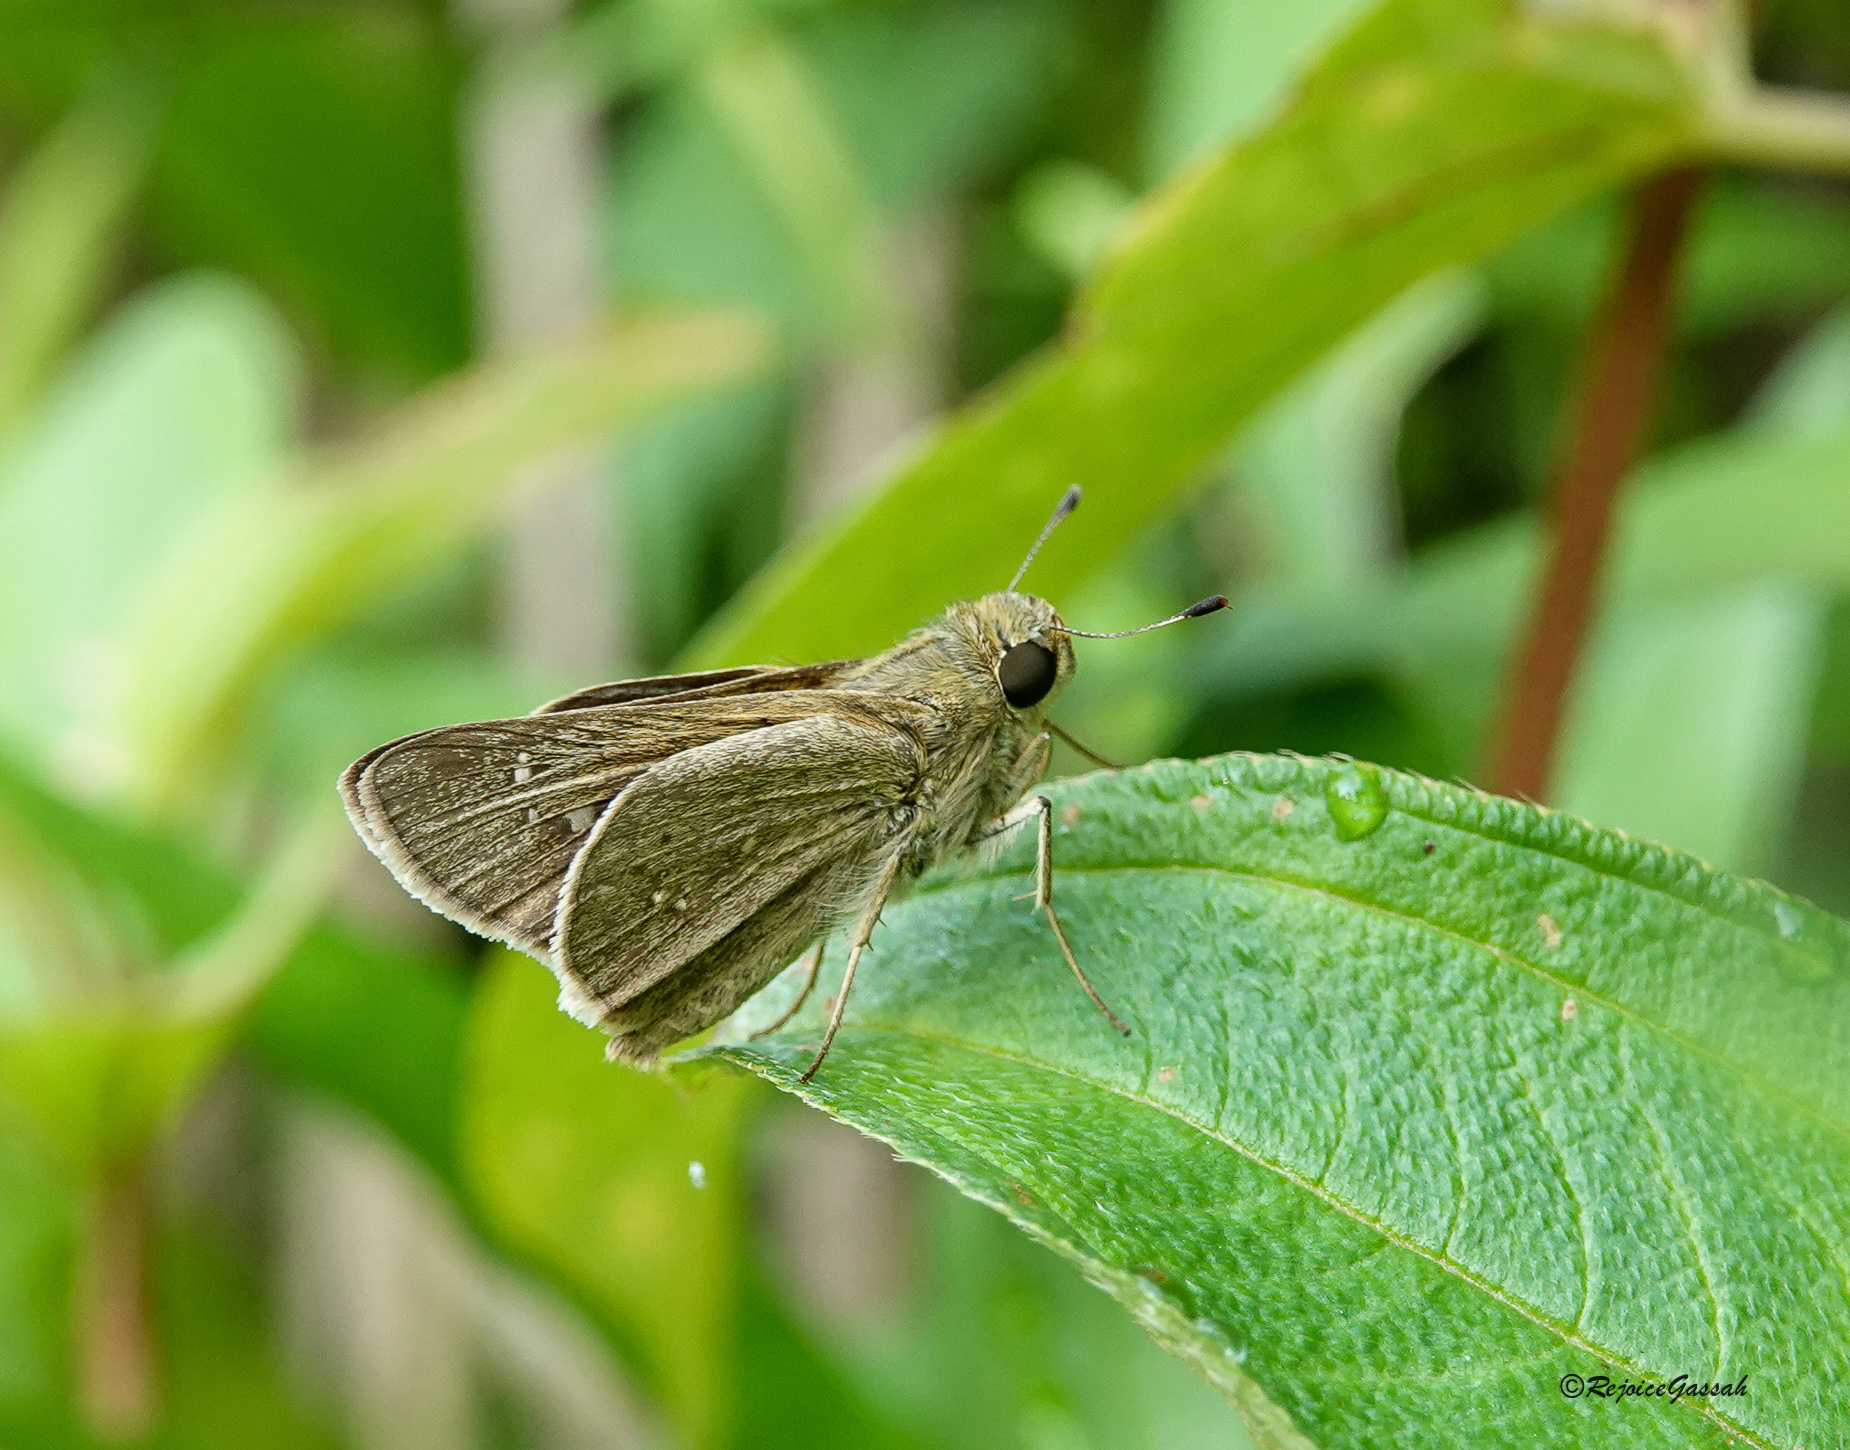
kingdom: Animalia
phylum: Arthropoda
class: Insecta
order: Lepidoptera
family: Hesperiidae
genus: Parnara
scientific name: Parnara naso
